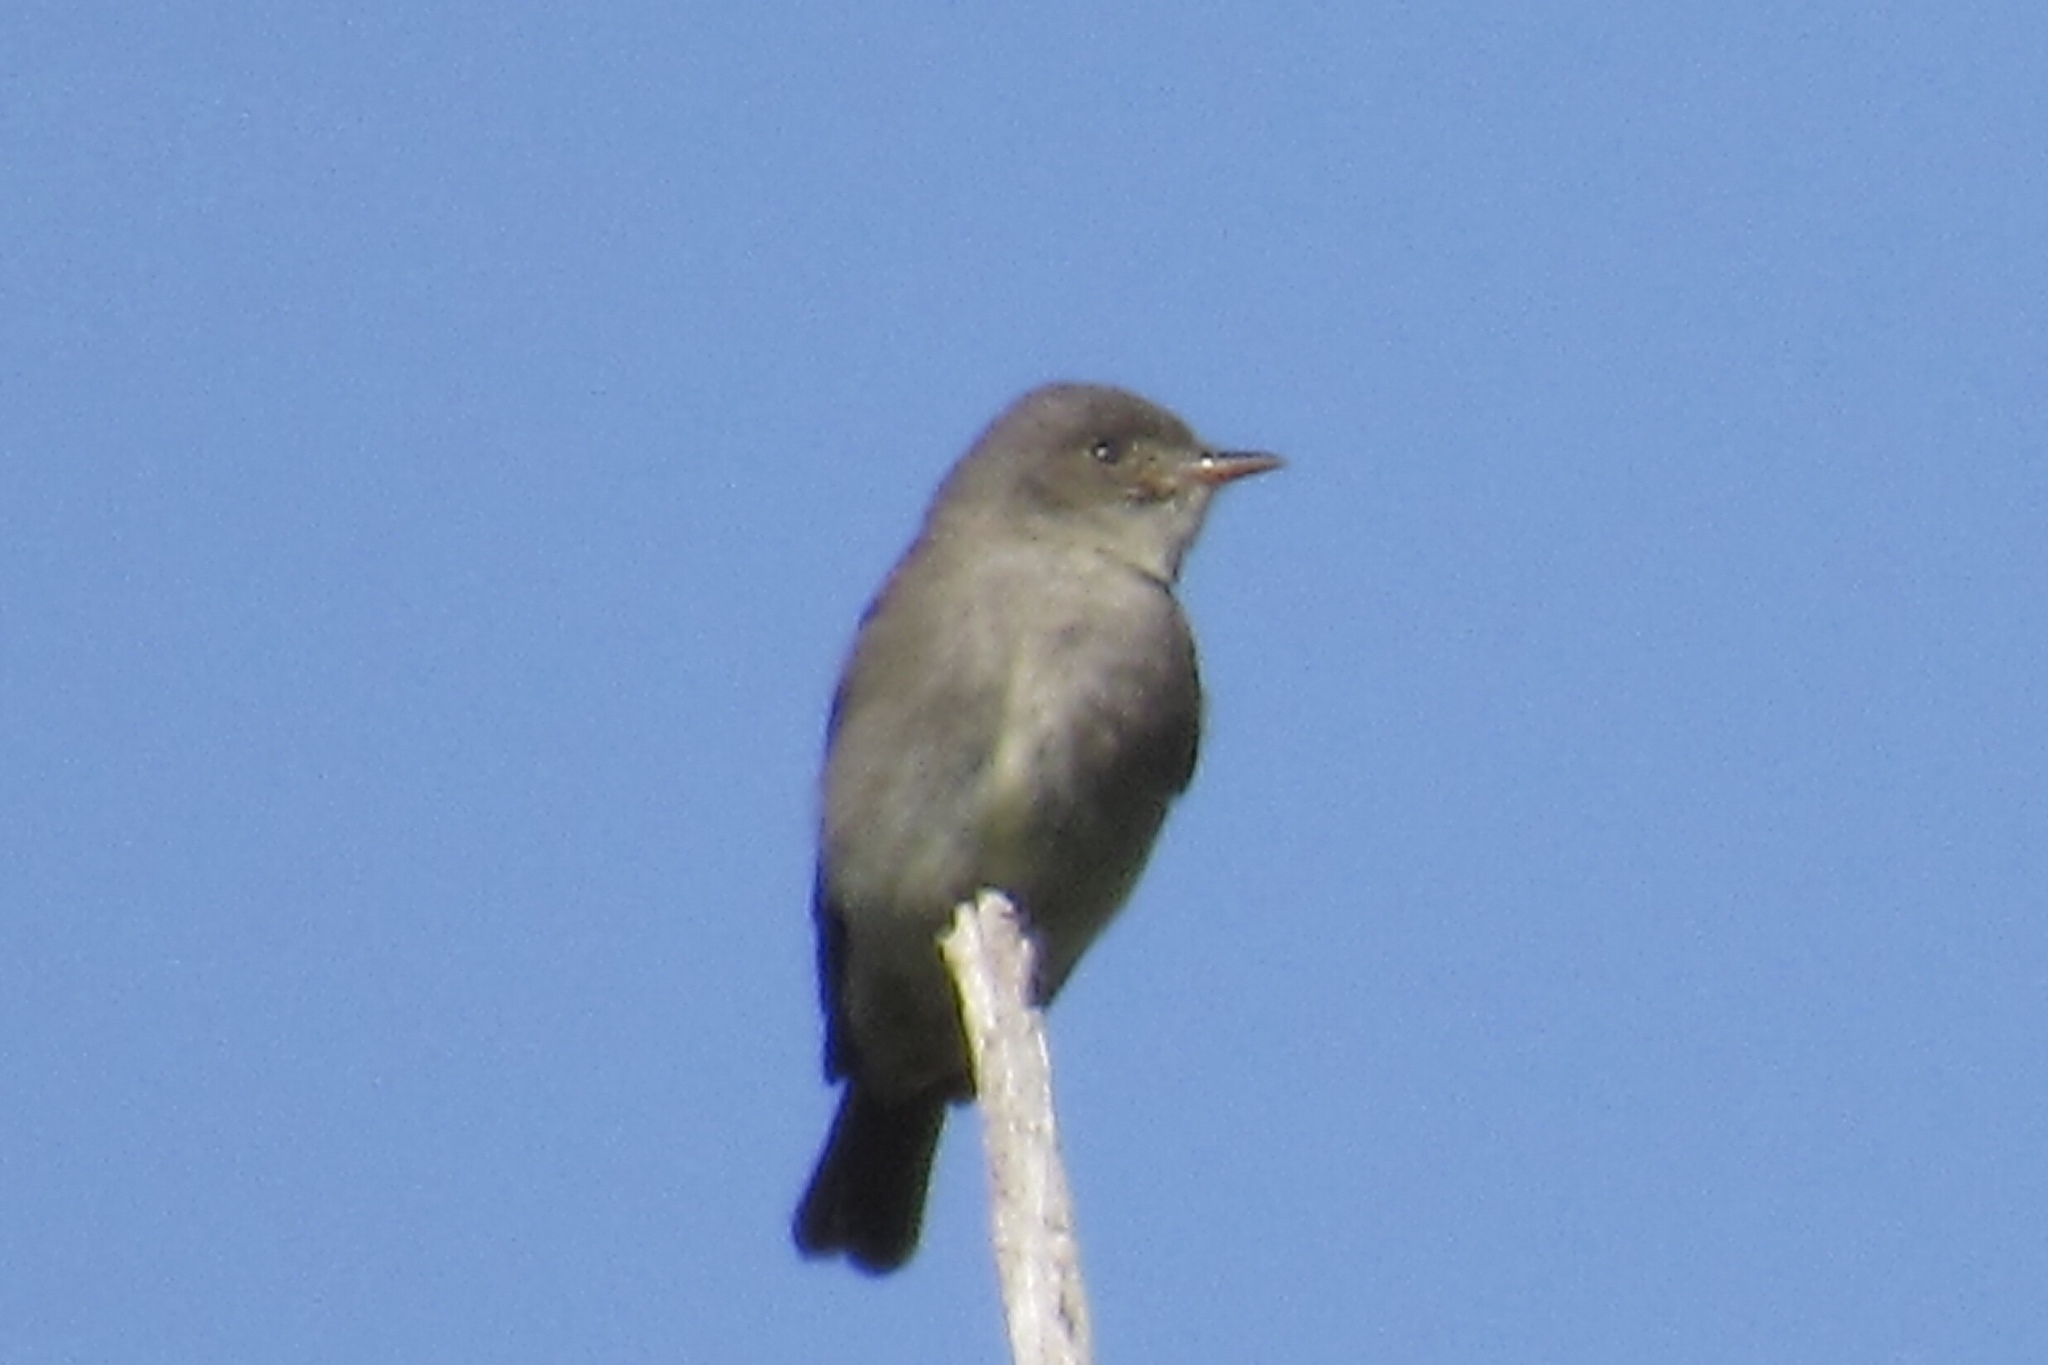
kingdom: Animalia
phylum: Chordata
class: Aves
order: Passeriformes
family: Tyrannidae
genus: Contopus
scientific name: Contopus sordidulus
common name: Western wood-pewee
